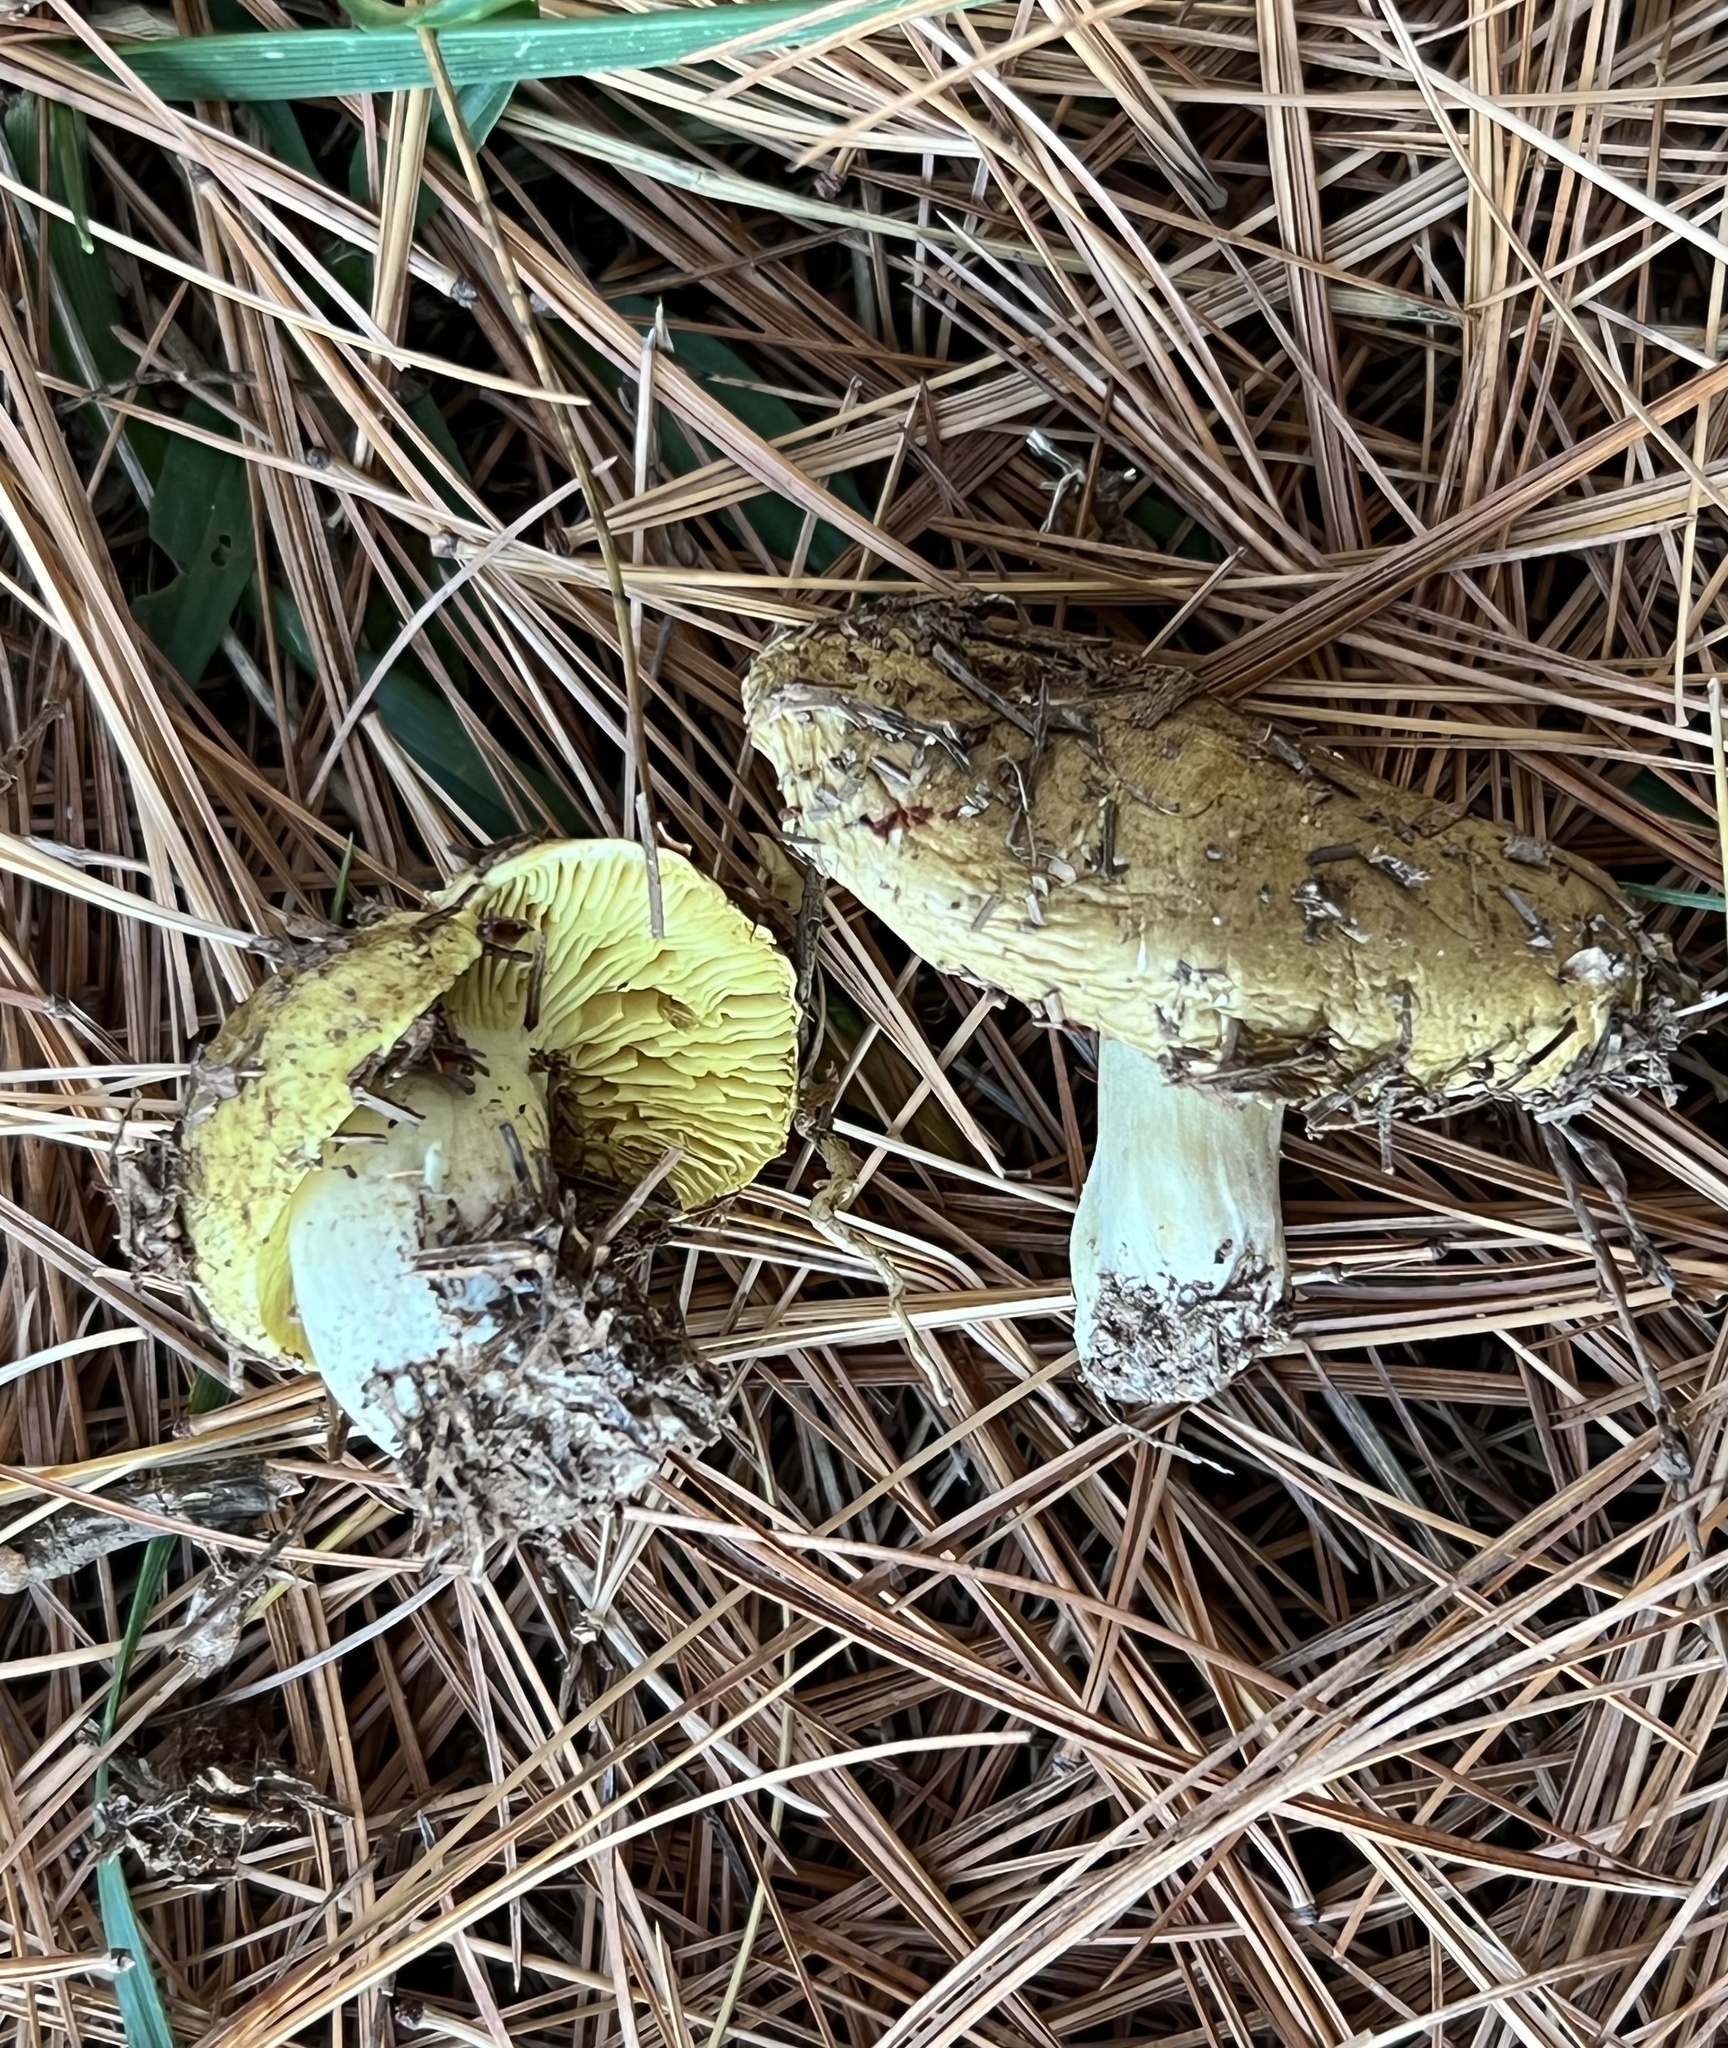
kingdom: Fungi
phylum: Basidiomycota
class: Agaricomycetes
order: Agaricales
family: Tricholomataceae
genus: Tricholoma
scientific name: Tricholoma equestre
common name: Yellow knight
